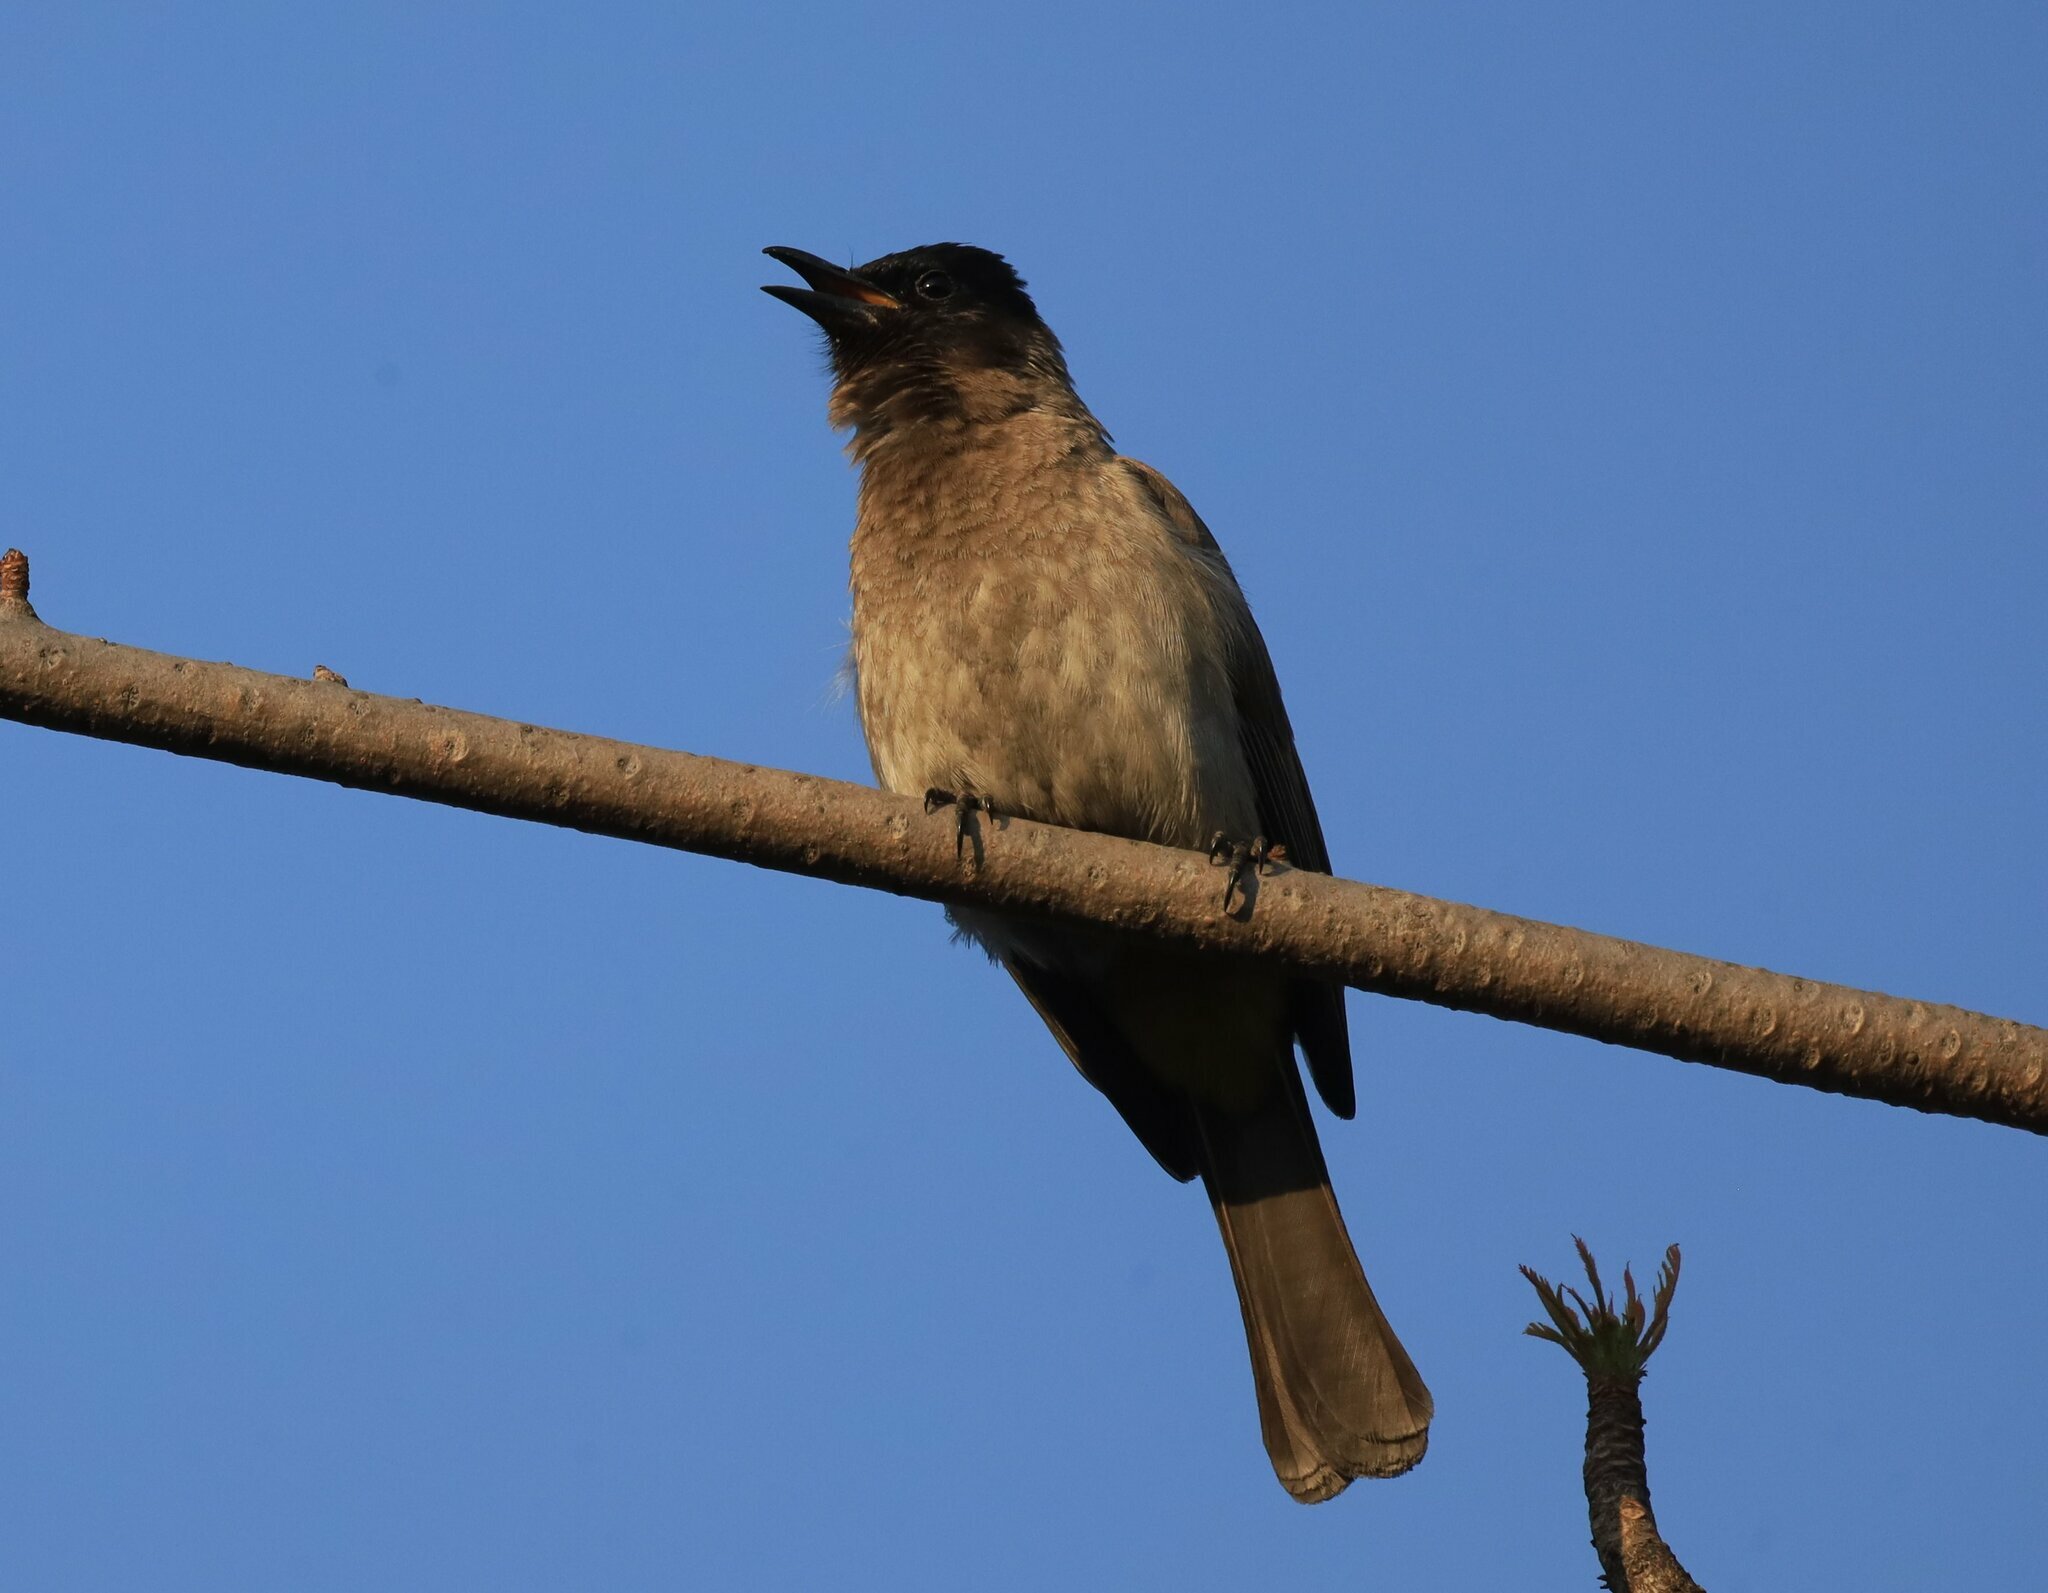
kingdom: Animalia
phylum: Chordata
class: Aves
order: Passeriformes
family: Pycnonotidae
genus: Pycnonotus
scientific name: Pycnonotus barbatus
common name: Common bulbul
